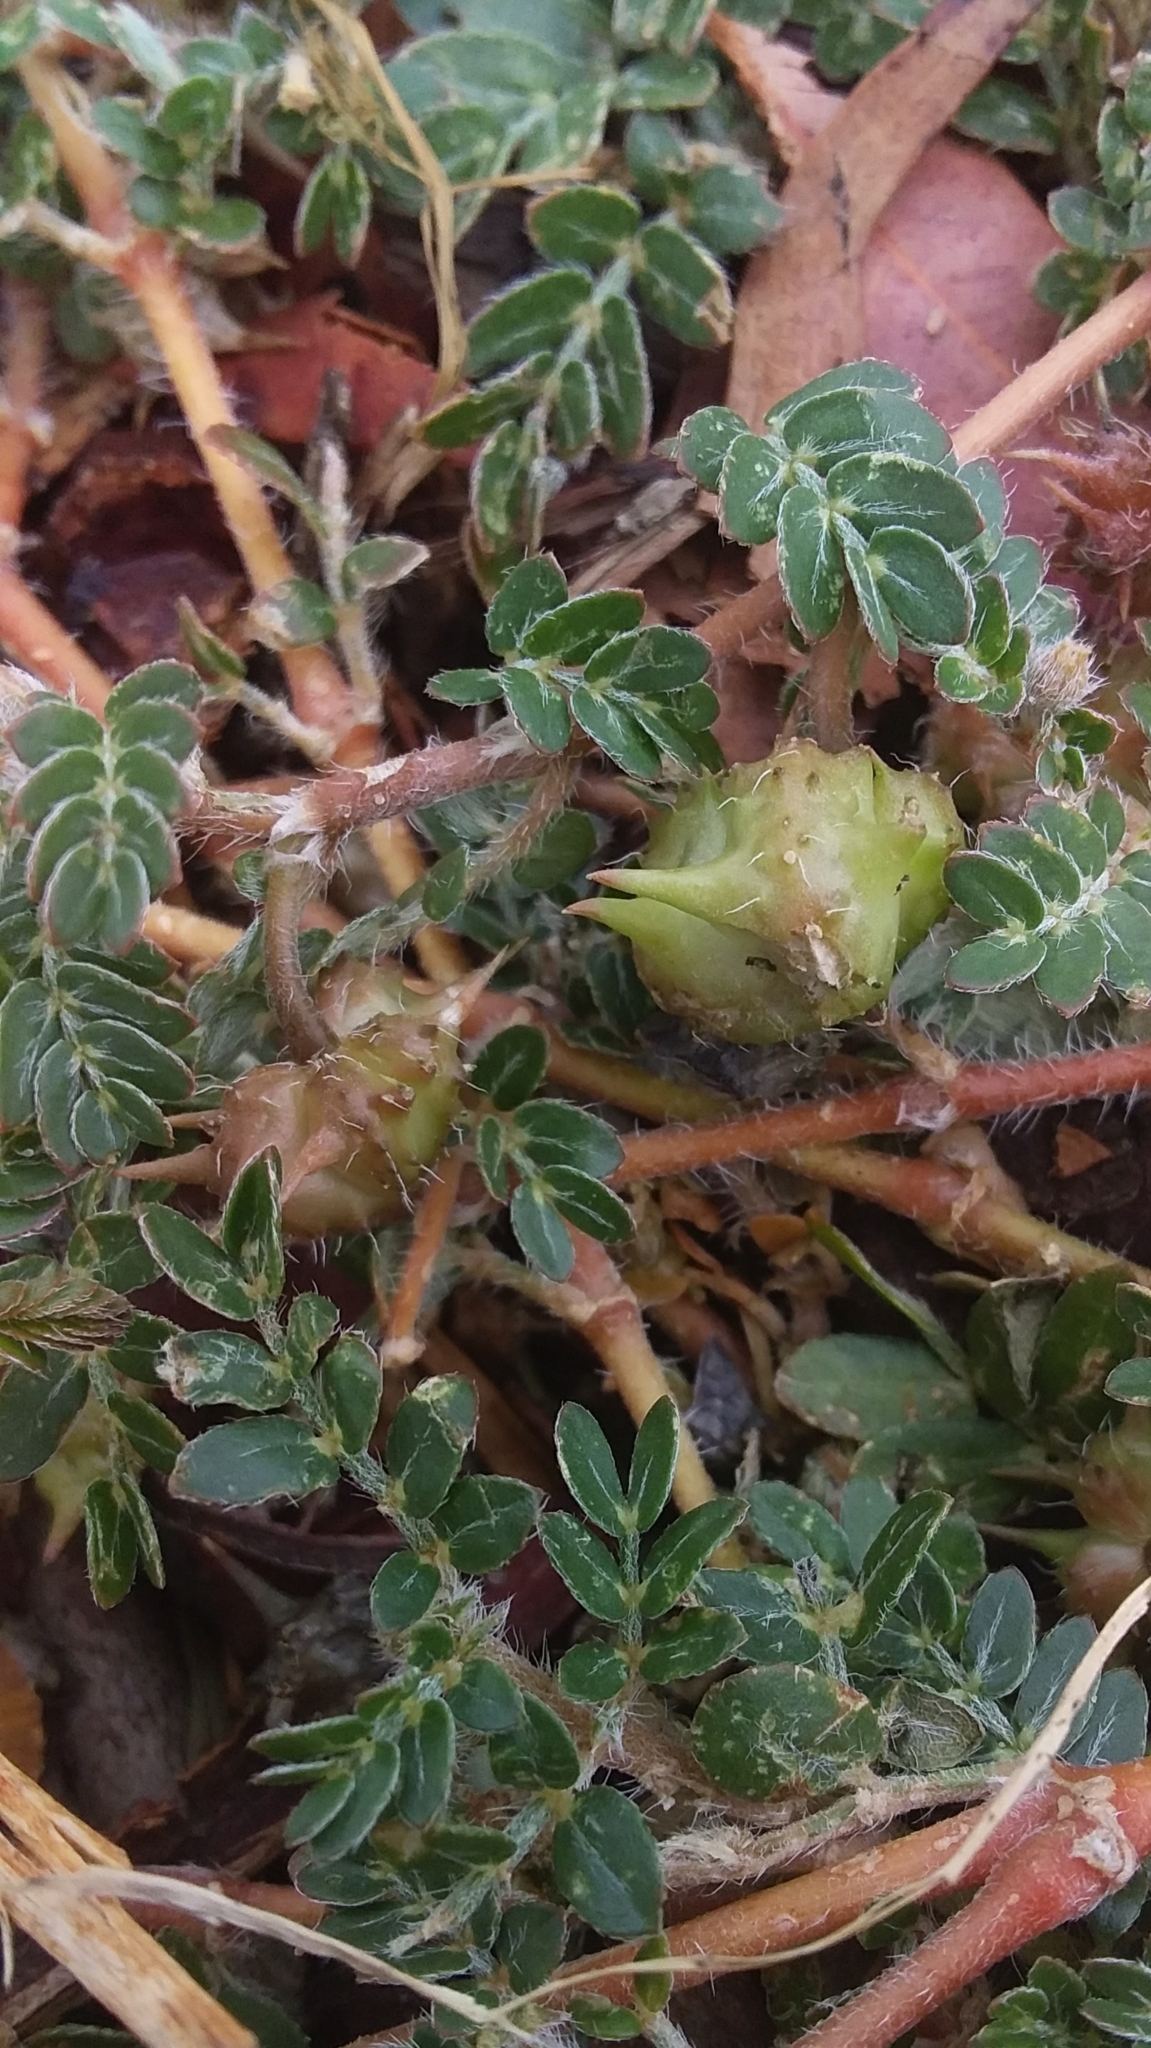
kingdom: Plantae
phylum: Tracheophyta
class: Magnoliopsida
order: Zygophyllales
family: Zygophyllaceae
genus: Tribulus
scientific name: Tribulus terrestris
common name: Puncturevine
